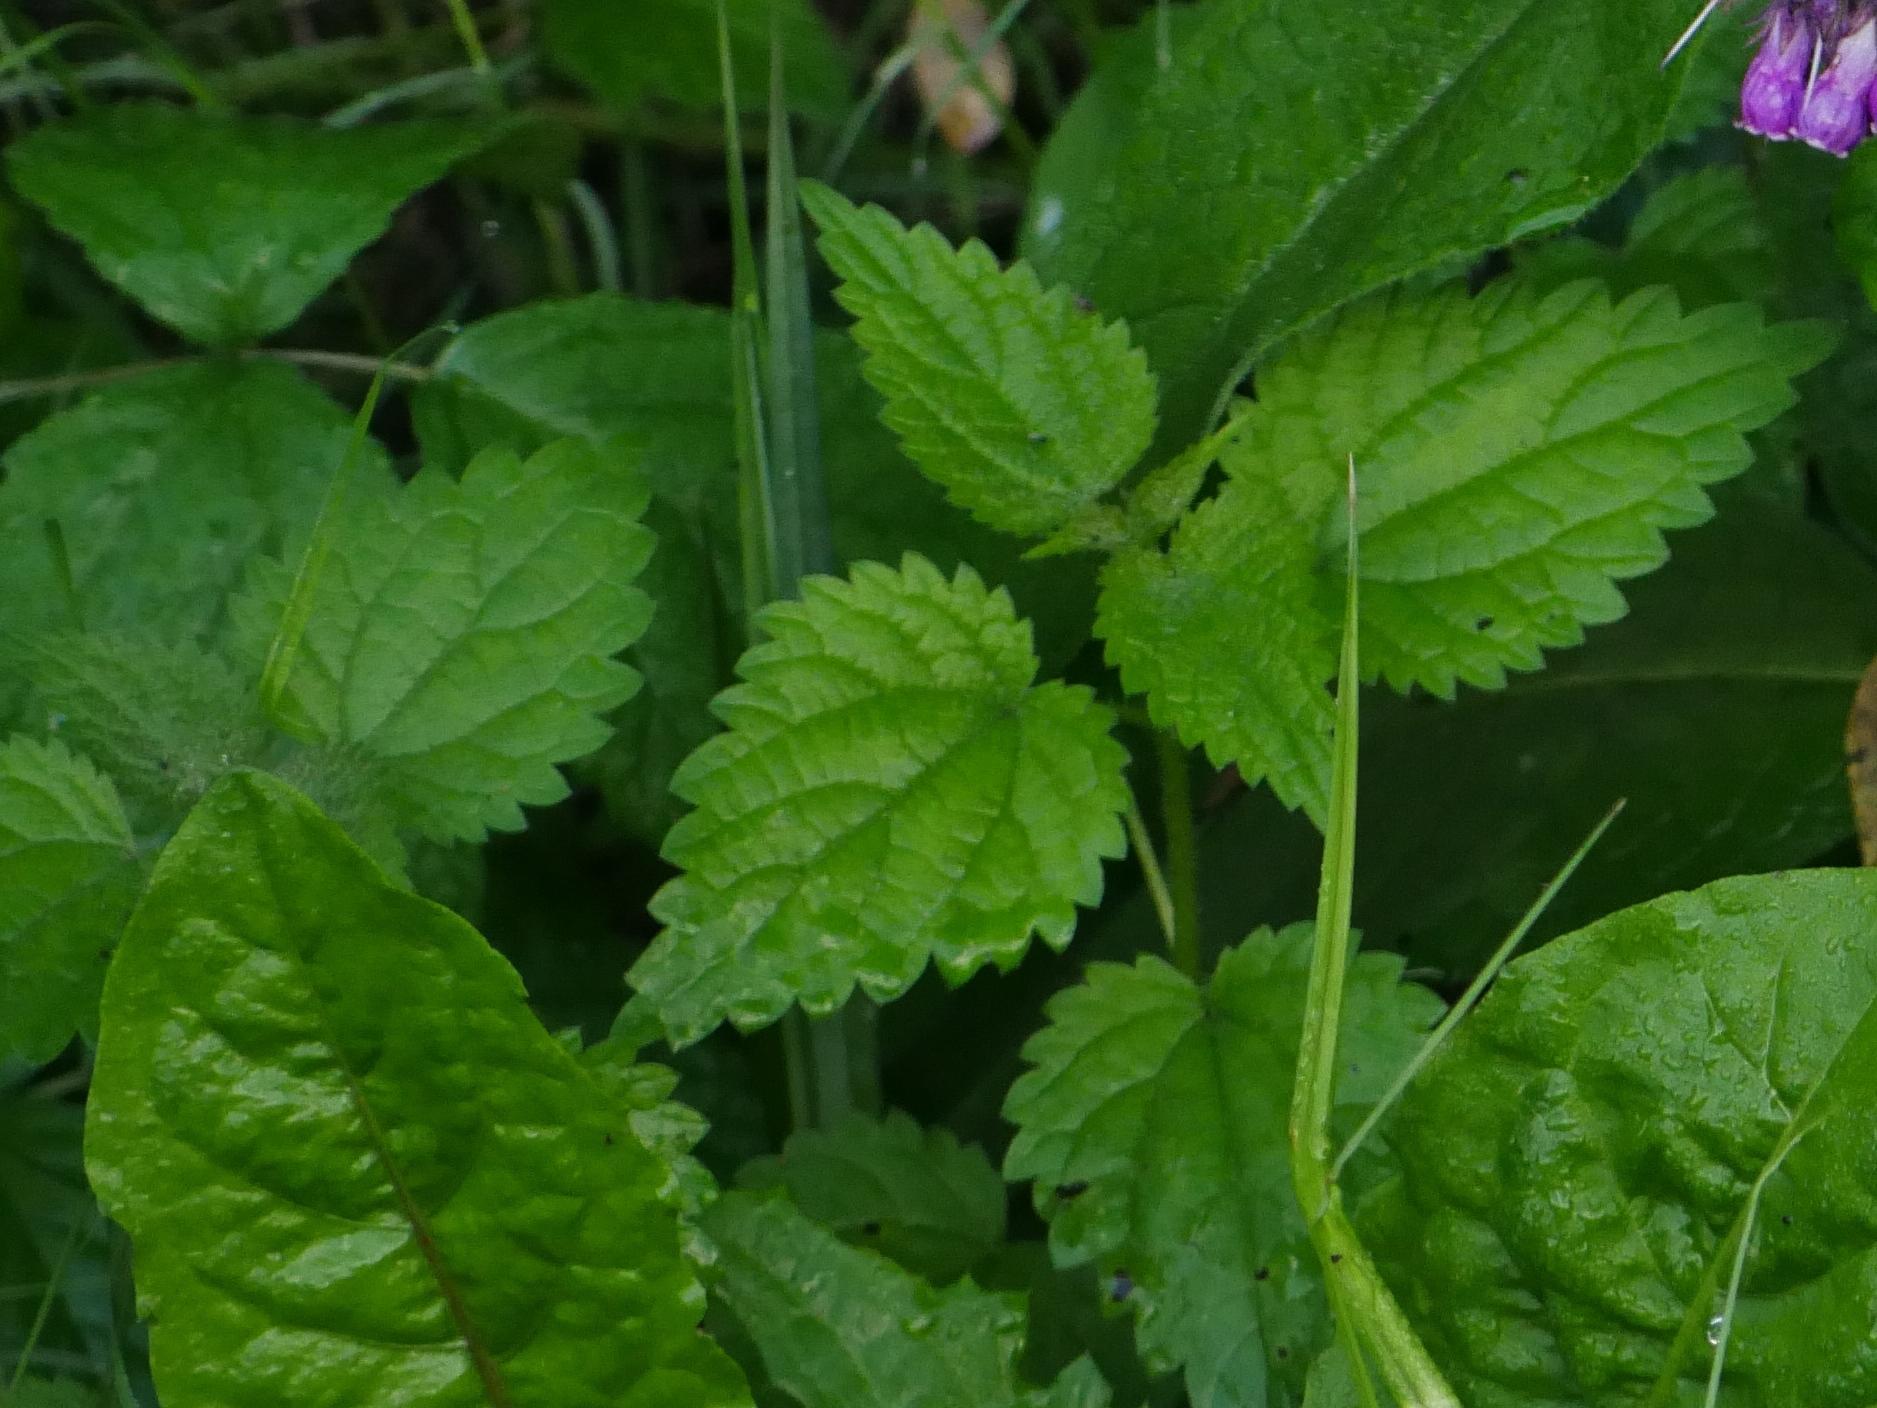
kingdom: Plantae
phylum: Tracheophyta
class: Magnoliopsida
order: Rosales
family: Urticaceae
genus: Urtica
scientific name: Urtica dioica
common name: Common nettle
